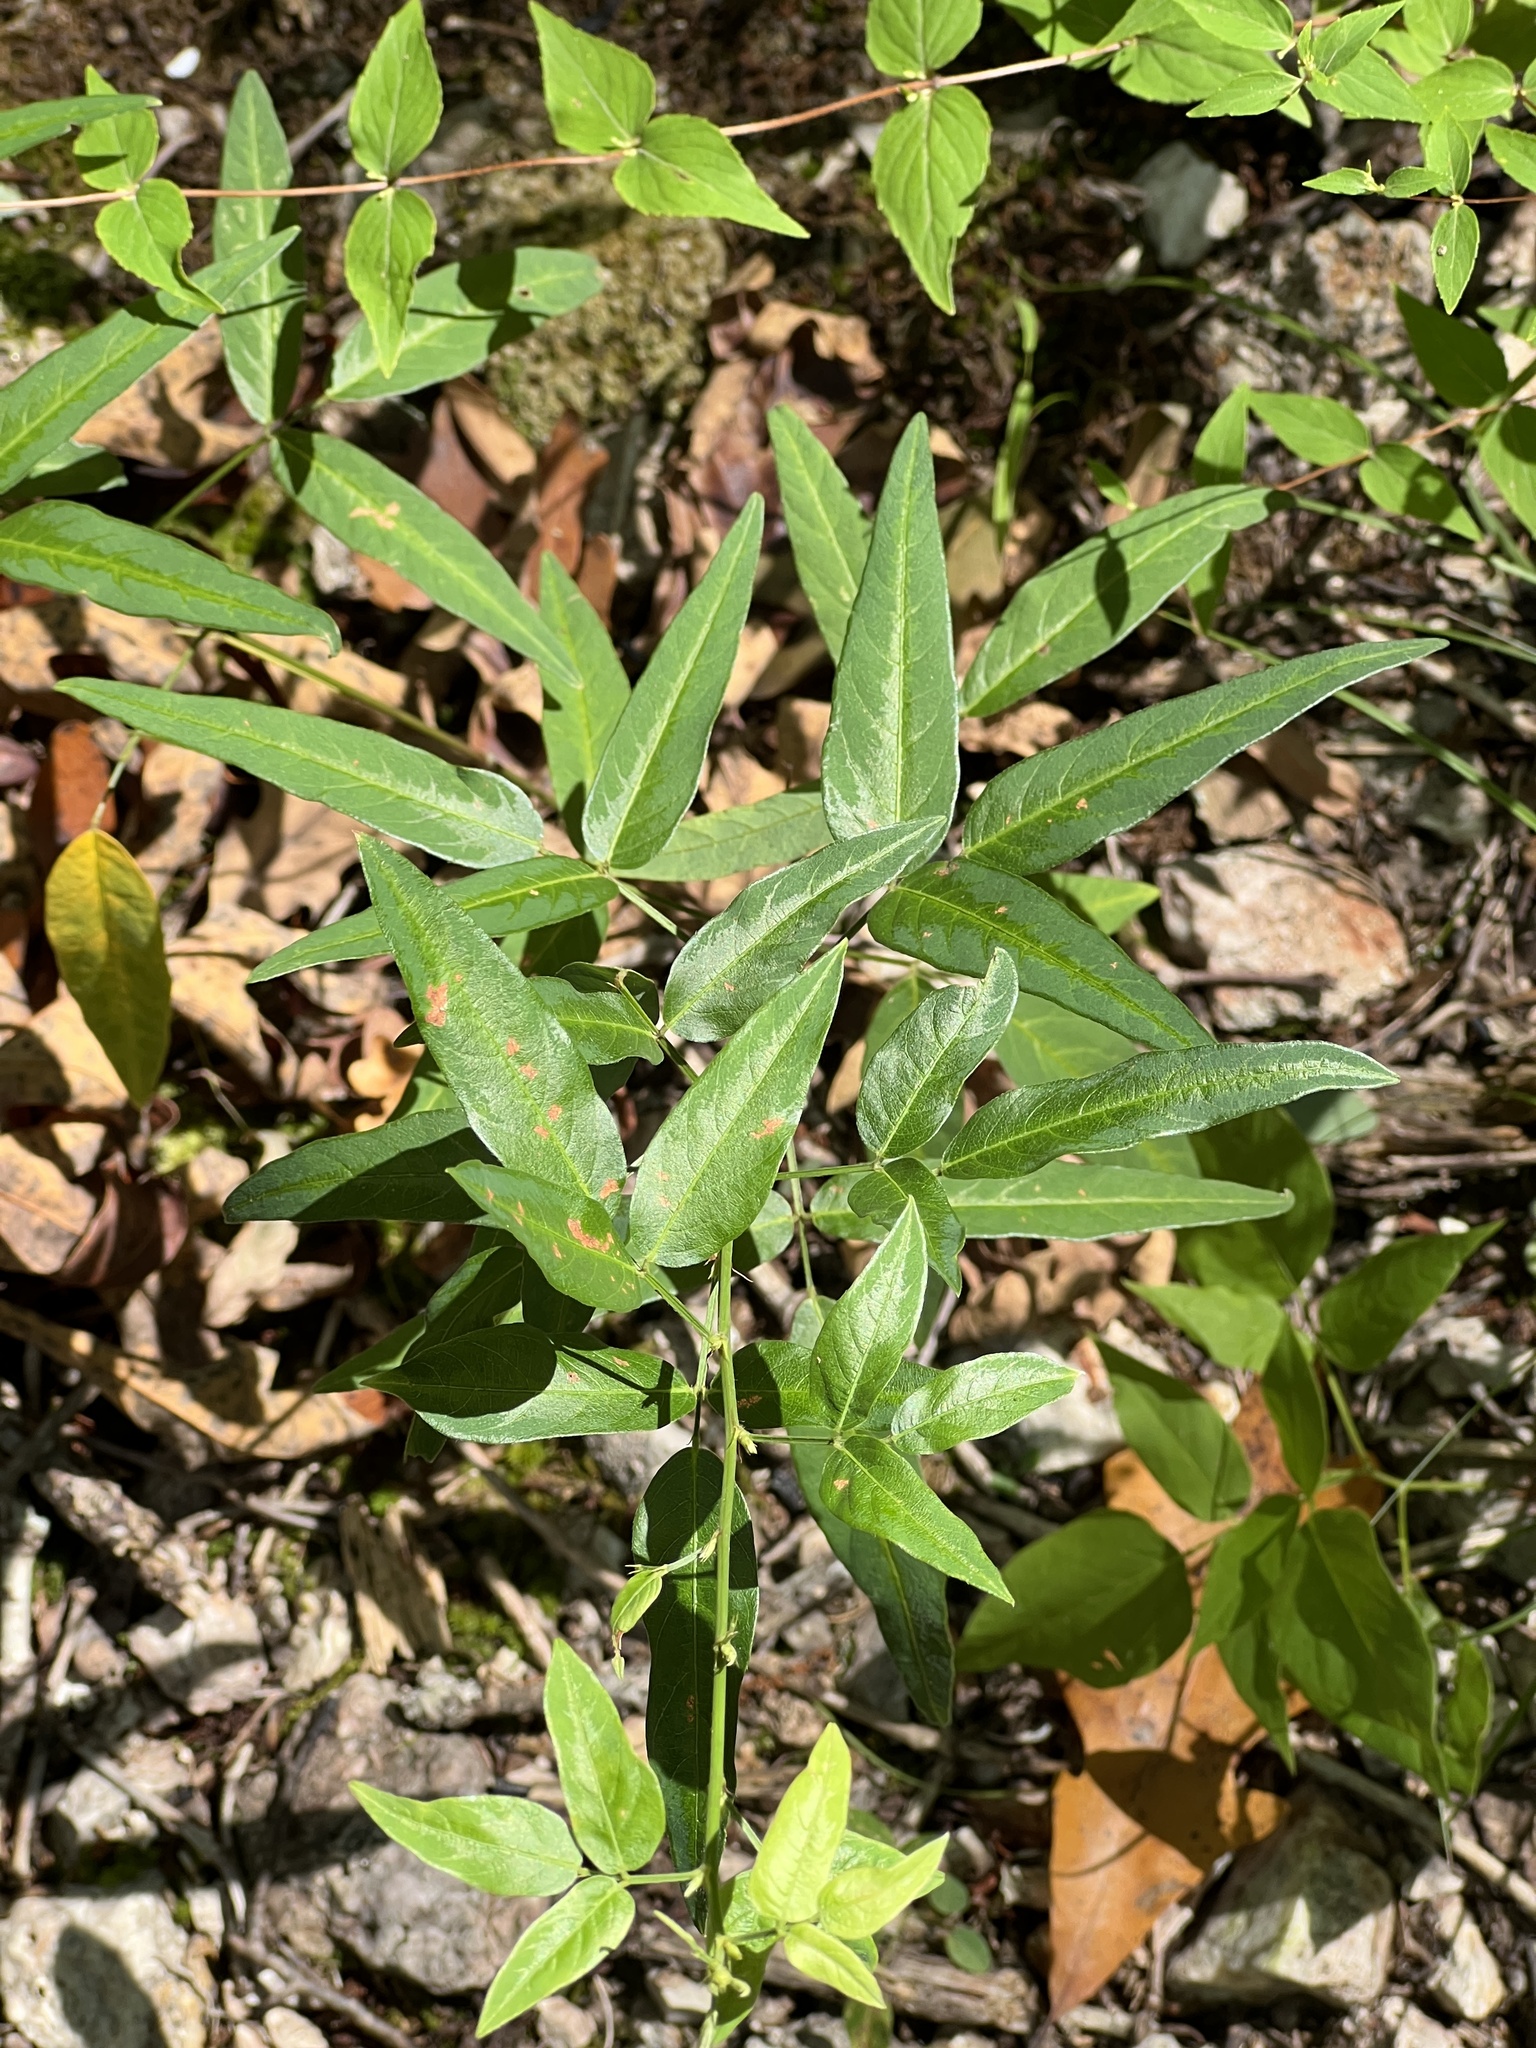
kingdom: Plantae
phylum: Tracheophyta
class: Magnoliopsida
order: Fabales
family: Fabaceae
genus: Desmodium
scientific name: Desmodium paniculatum
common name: Panicled tick-clover
